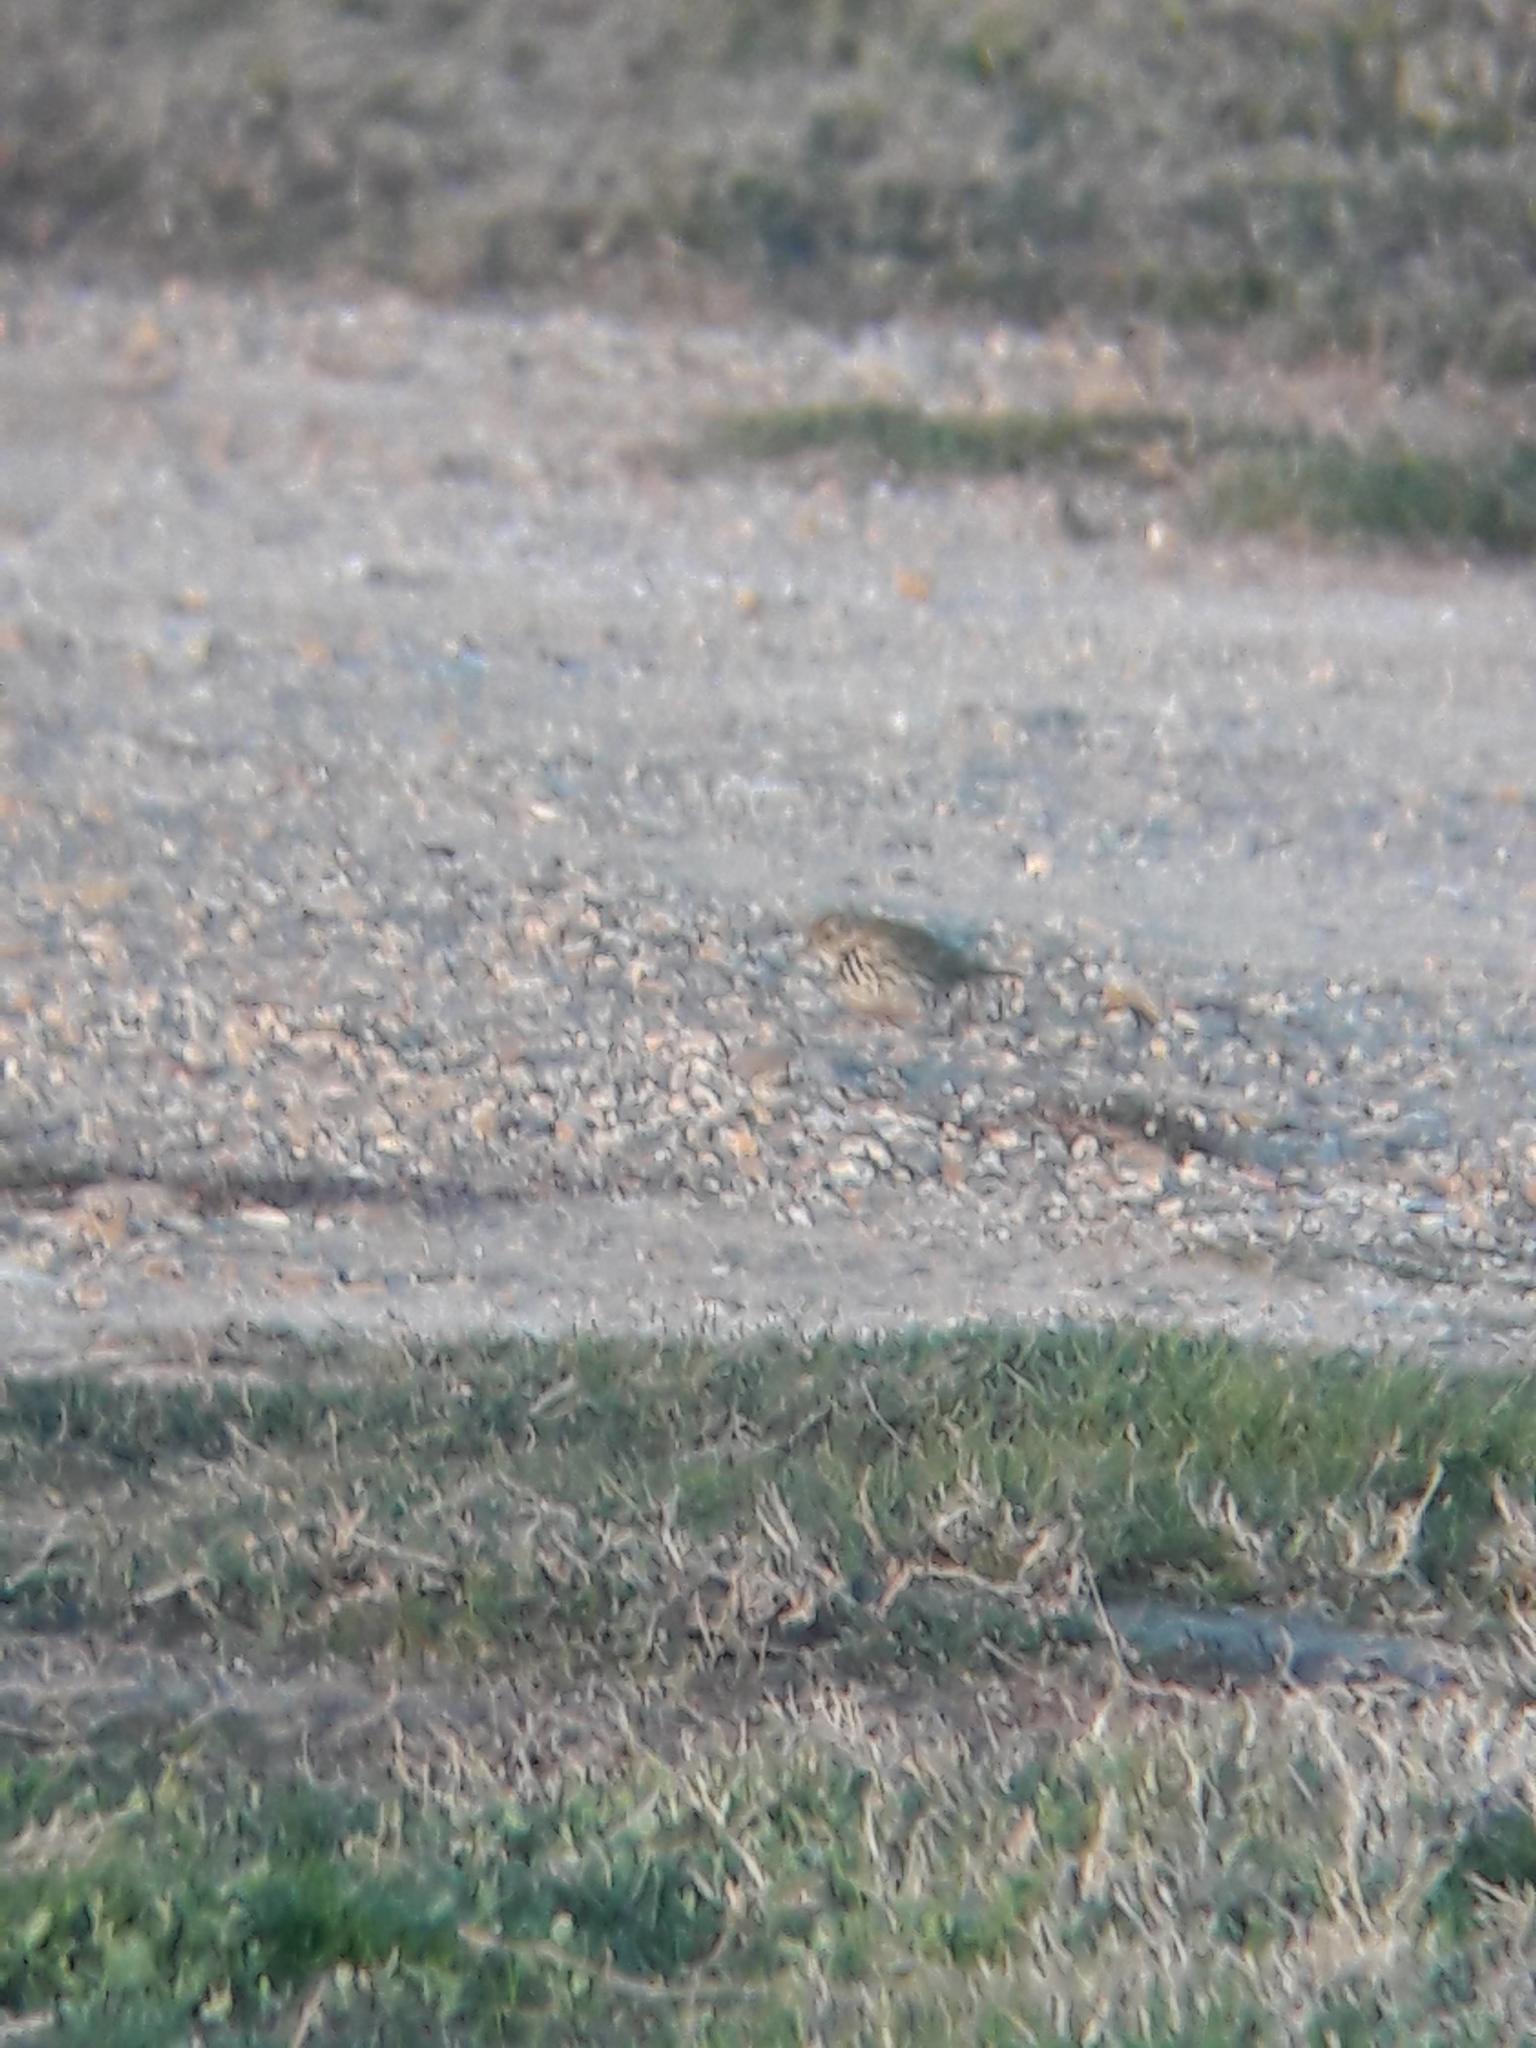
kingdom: Animalia
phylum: Chordata
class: Aves
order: Passeriformes
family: Motacillidae
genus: Anthus
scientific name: Anthus pratensis
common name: Meadow pipit
